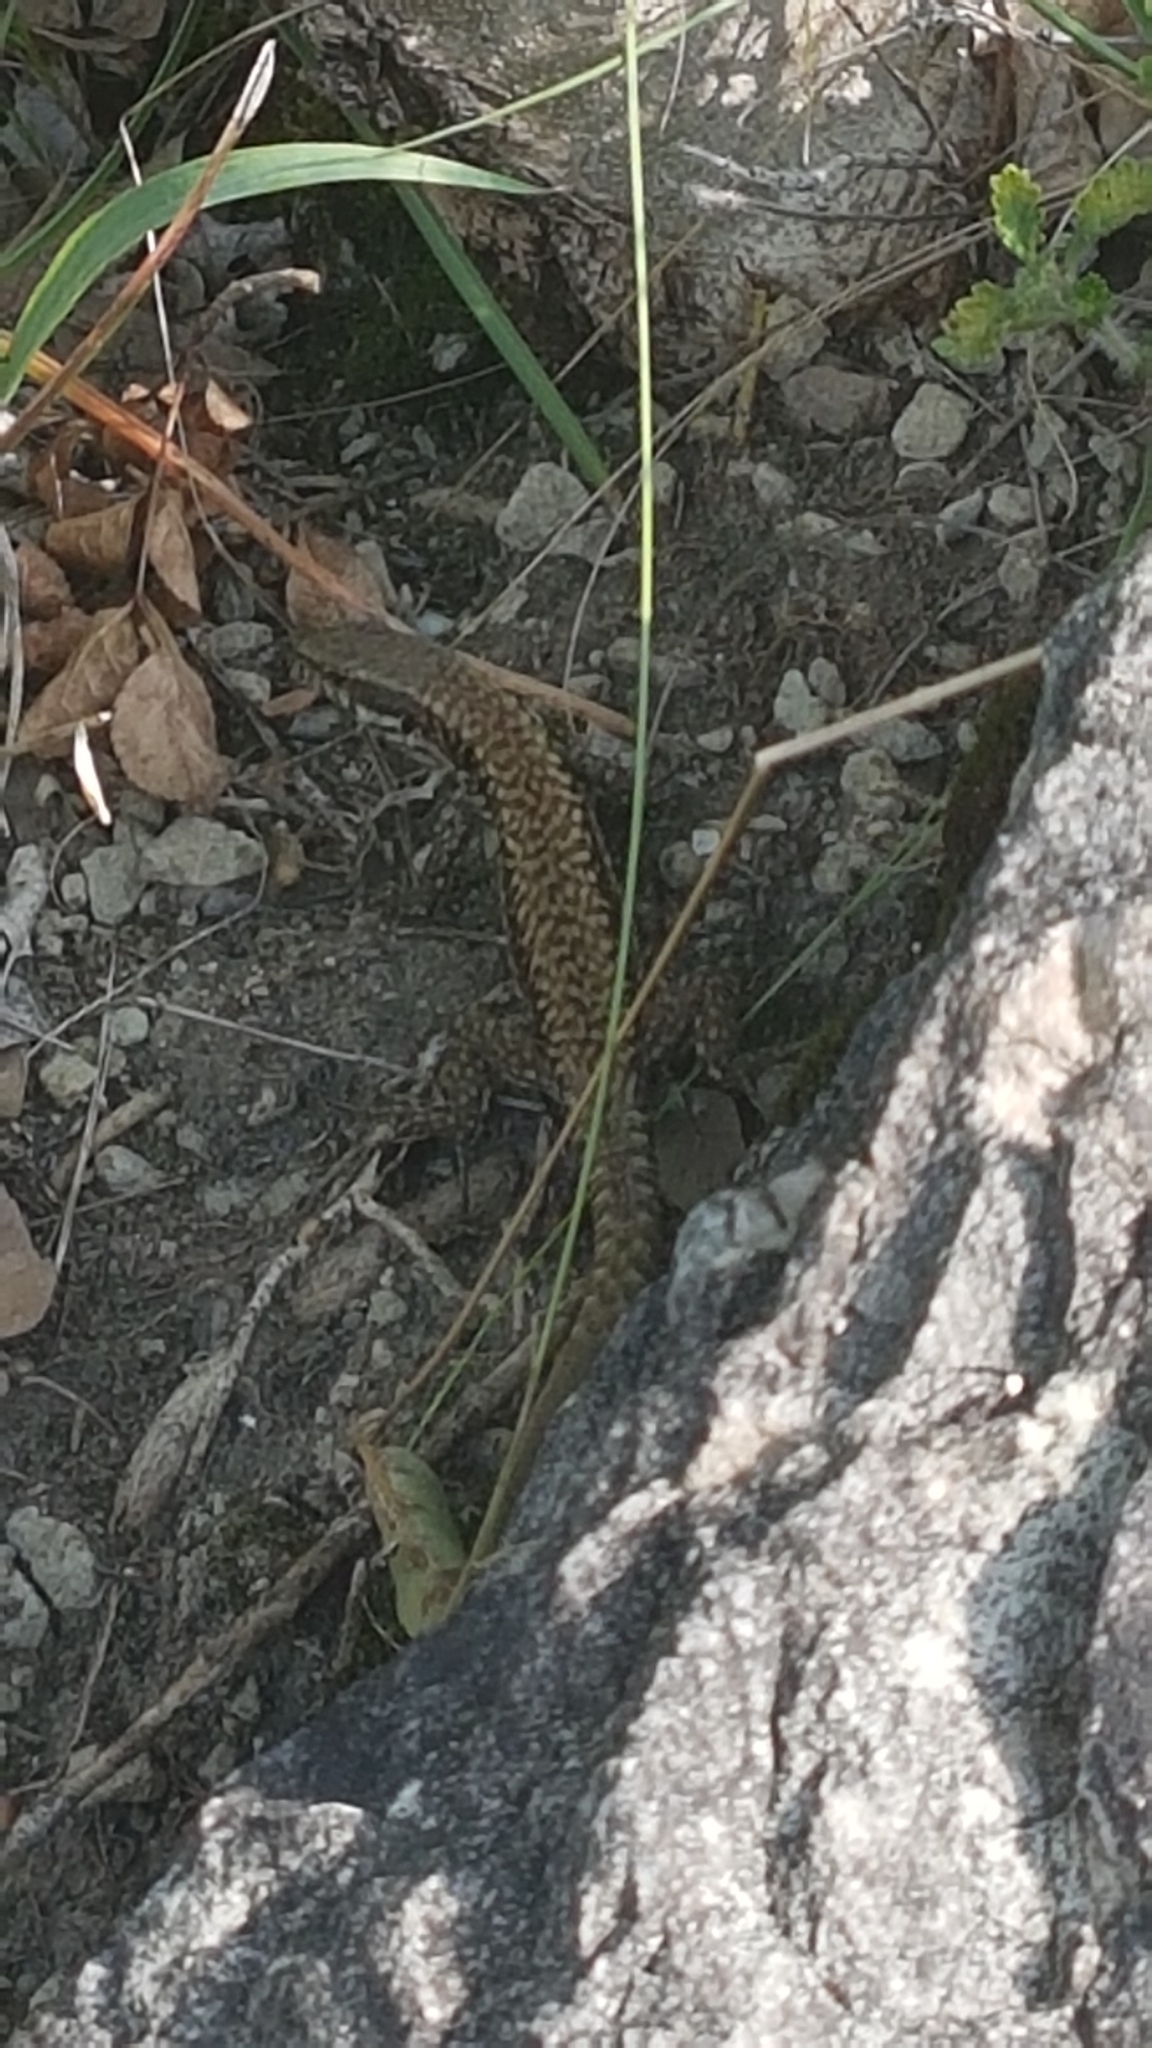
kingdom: Animalia
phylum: Chordata
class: Squamata
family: Lacertidae
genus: Podarcis
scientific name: Podarcis muralis
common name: Common wall lizard
